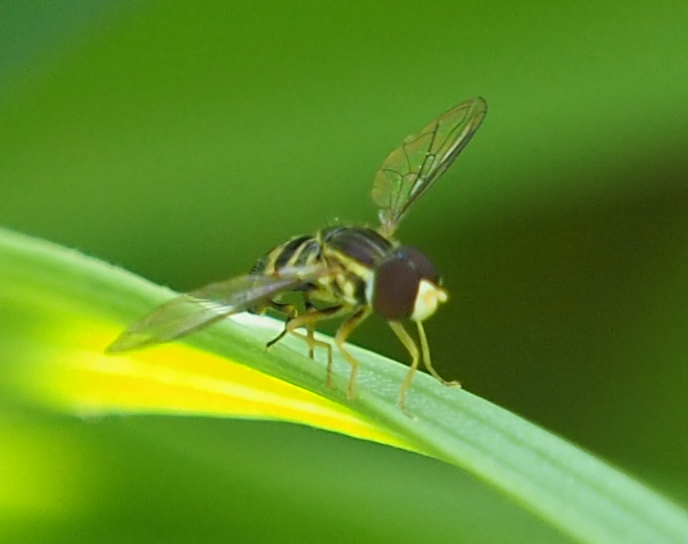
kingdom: Animalia
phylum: Arthropoda
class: Insecta
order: Diptera
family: Syrphidae
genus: Toxomerus
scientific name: Toxomerus geminatus
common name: Eastern calligrapher
